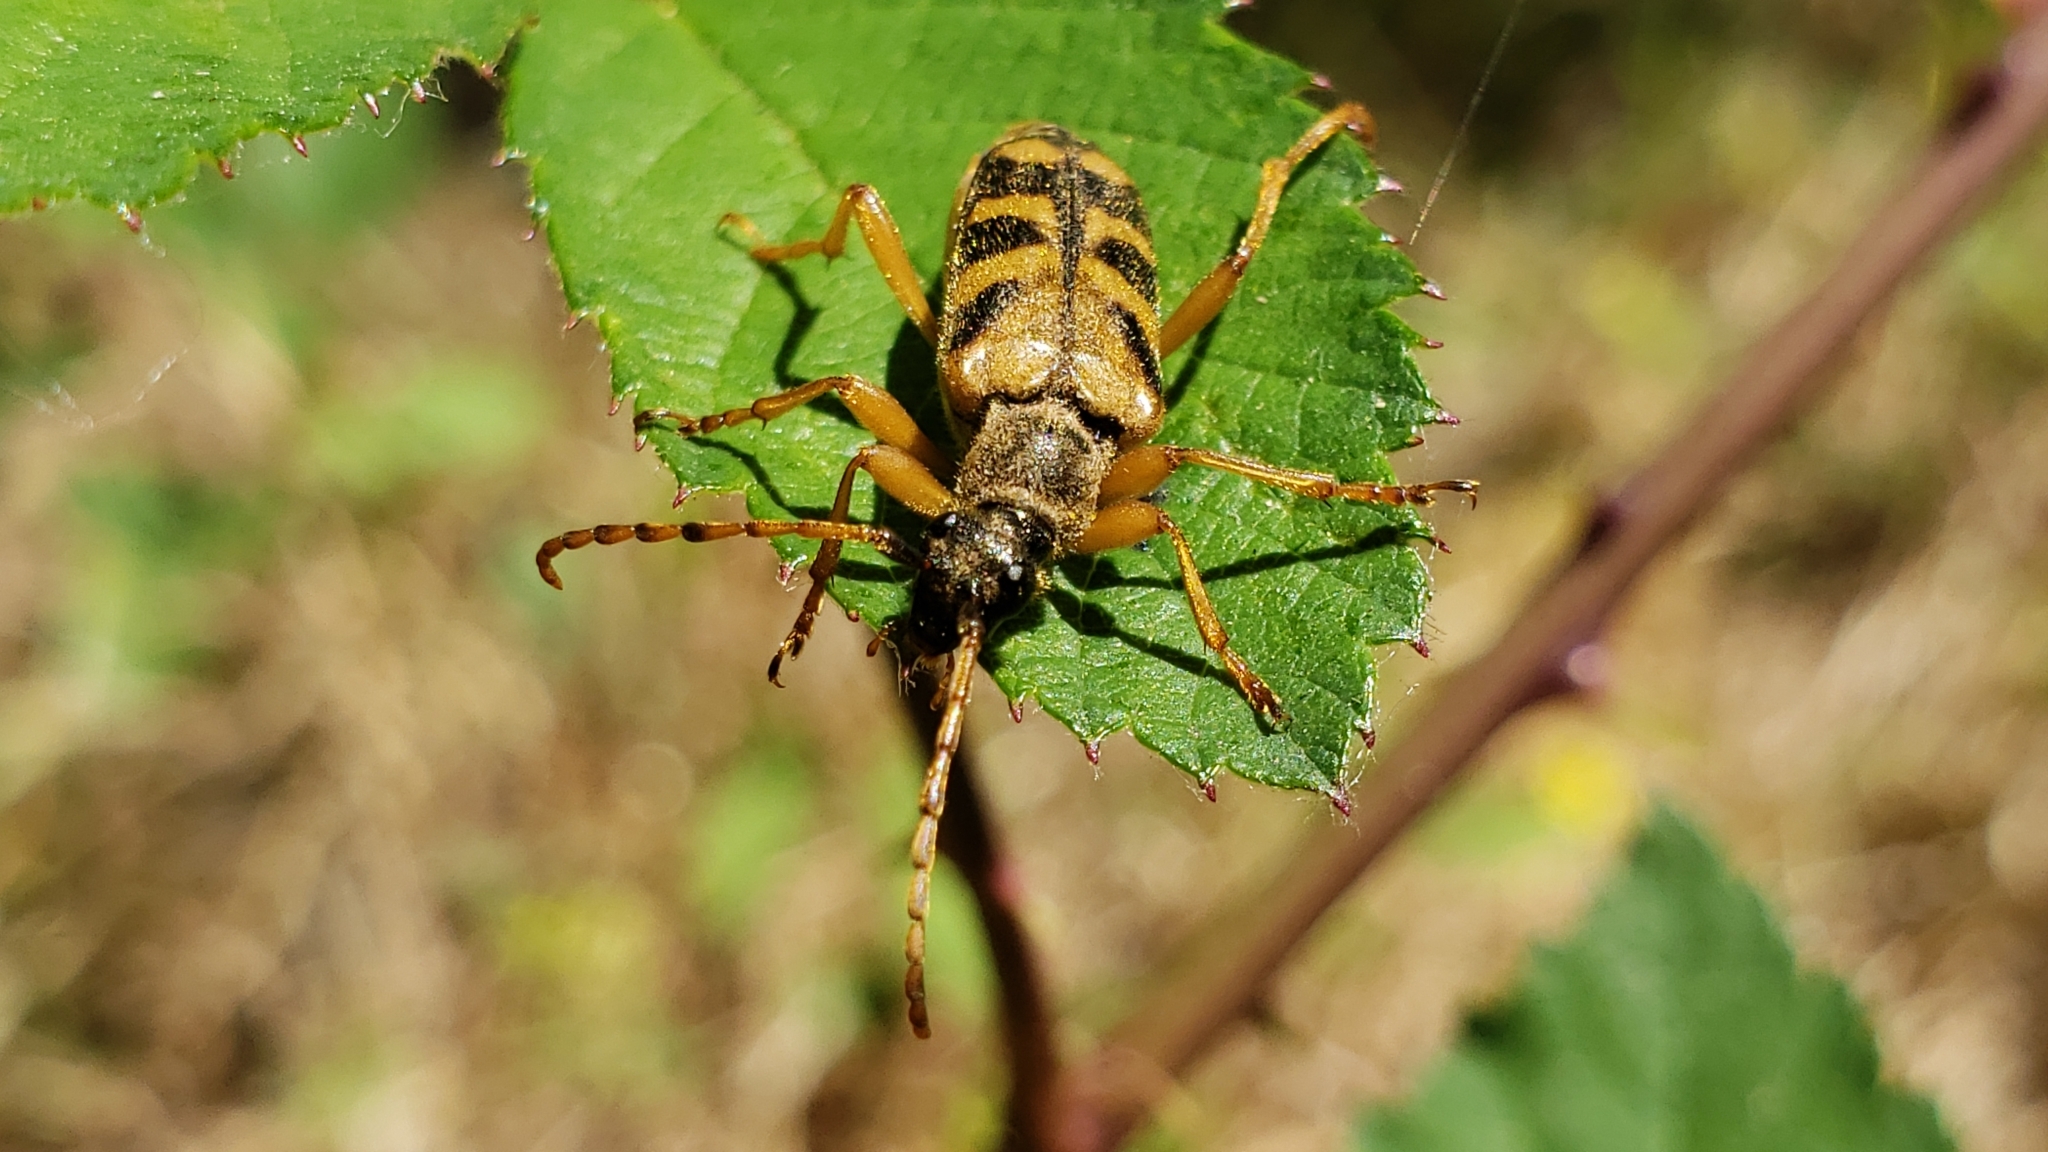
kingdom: Animalia
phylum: Arthropoda
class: Insecta
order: Coleoptera
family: Cerambycidae
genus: Xestoleptura
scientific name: Xestoleptura crassipes
